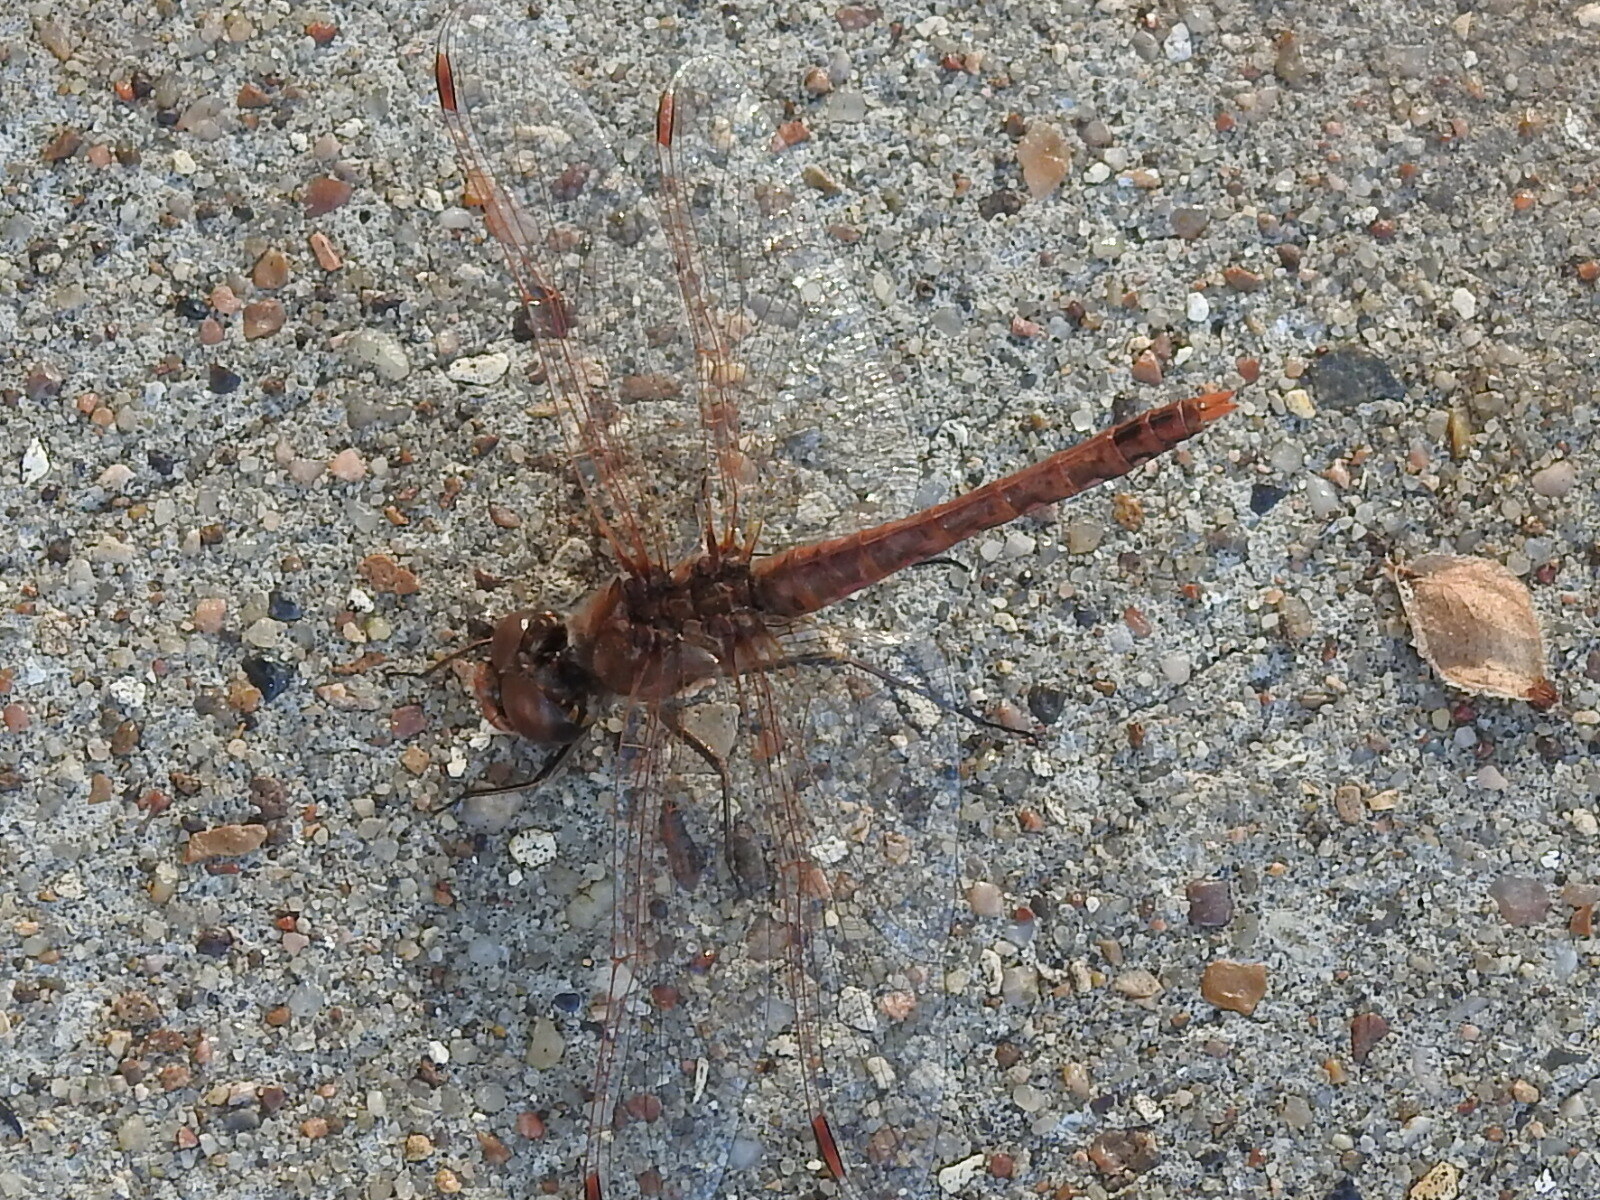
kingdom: Animalia
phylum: Arthropoda
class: Insecta
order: Odonata
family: Libellulidae
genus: Sympetrum
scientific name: Sympetrum corruptum
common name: Variegated meadowhawk
